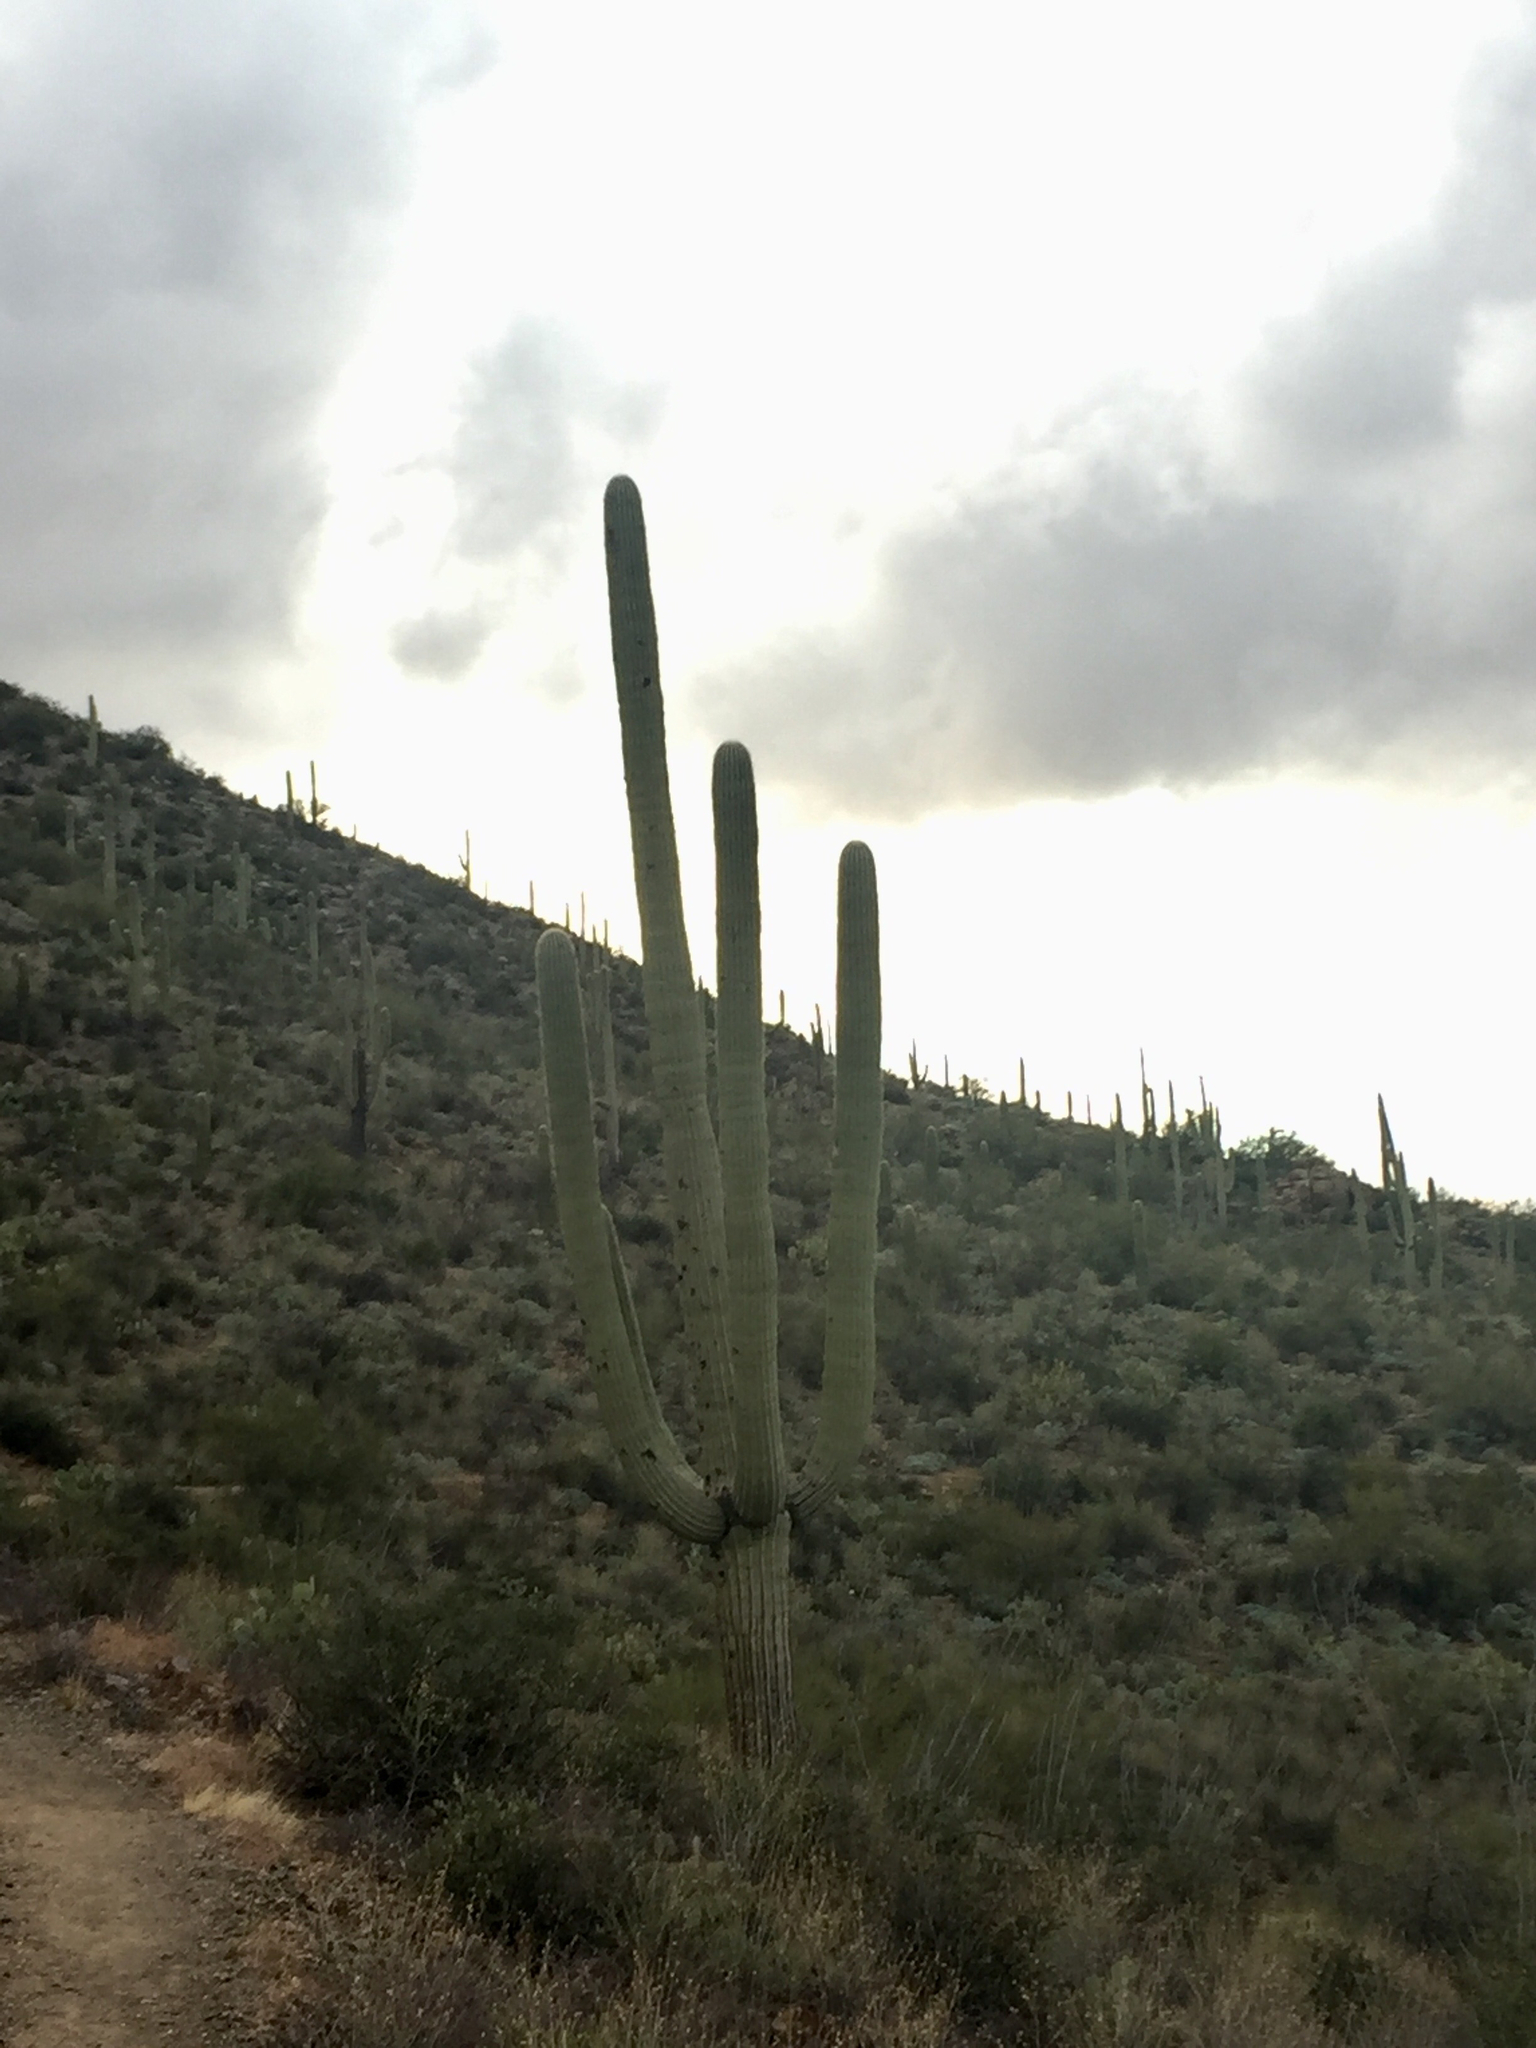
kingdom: Plantae
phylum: Tracheophyta
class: Magnoliopsida
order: Caryophyllales
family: Cactaceae
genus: Carnegiea
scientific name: Carnegiea gigantea
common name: Saguaro
